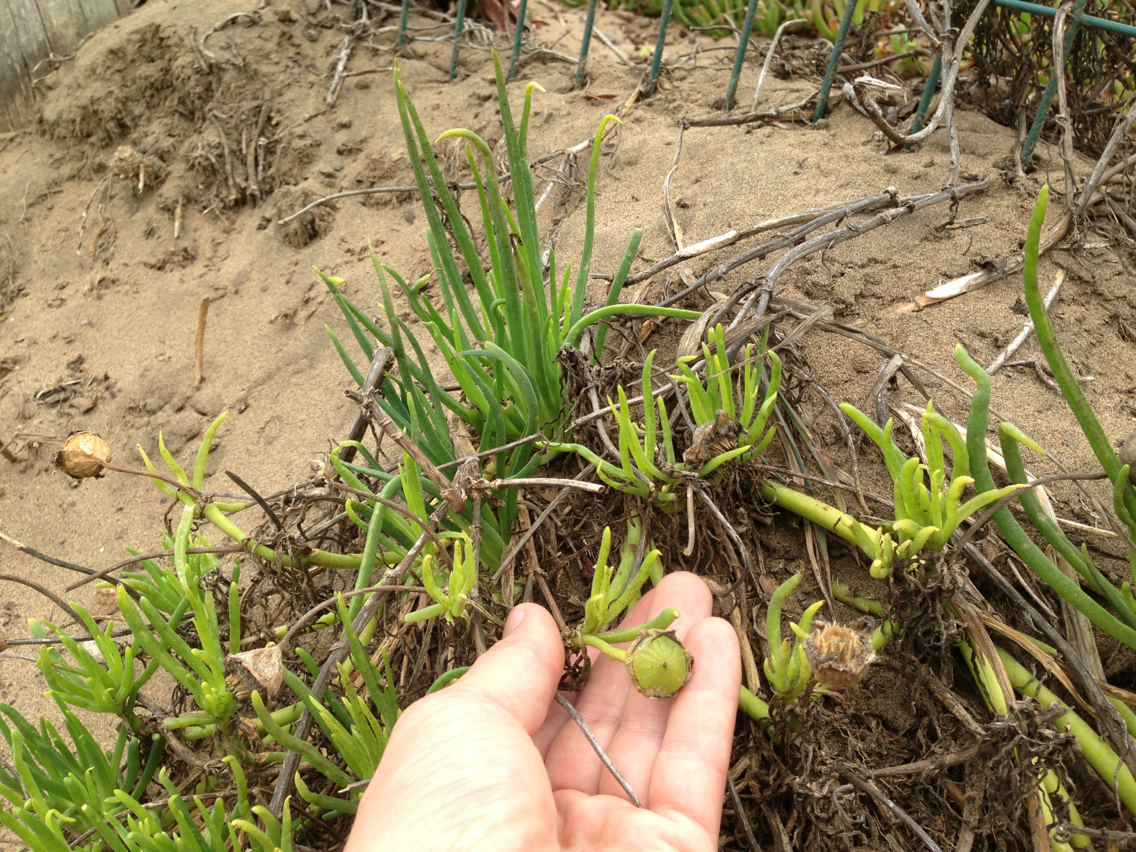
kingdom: Plantae
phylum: Tracheophyta
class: Magnoliopsida
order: Caryophyllales
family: Aizoaceae
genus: Conicosia
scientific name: Conicosia pugioniformis
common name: Narrow-leaved iceplant
